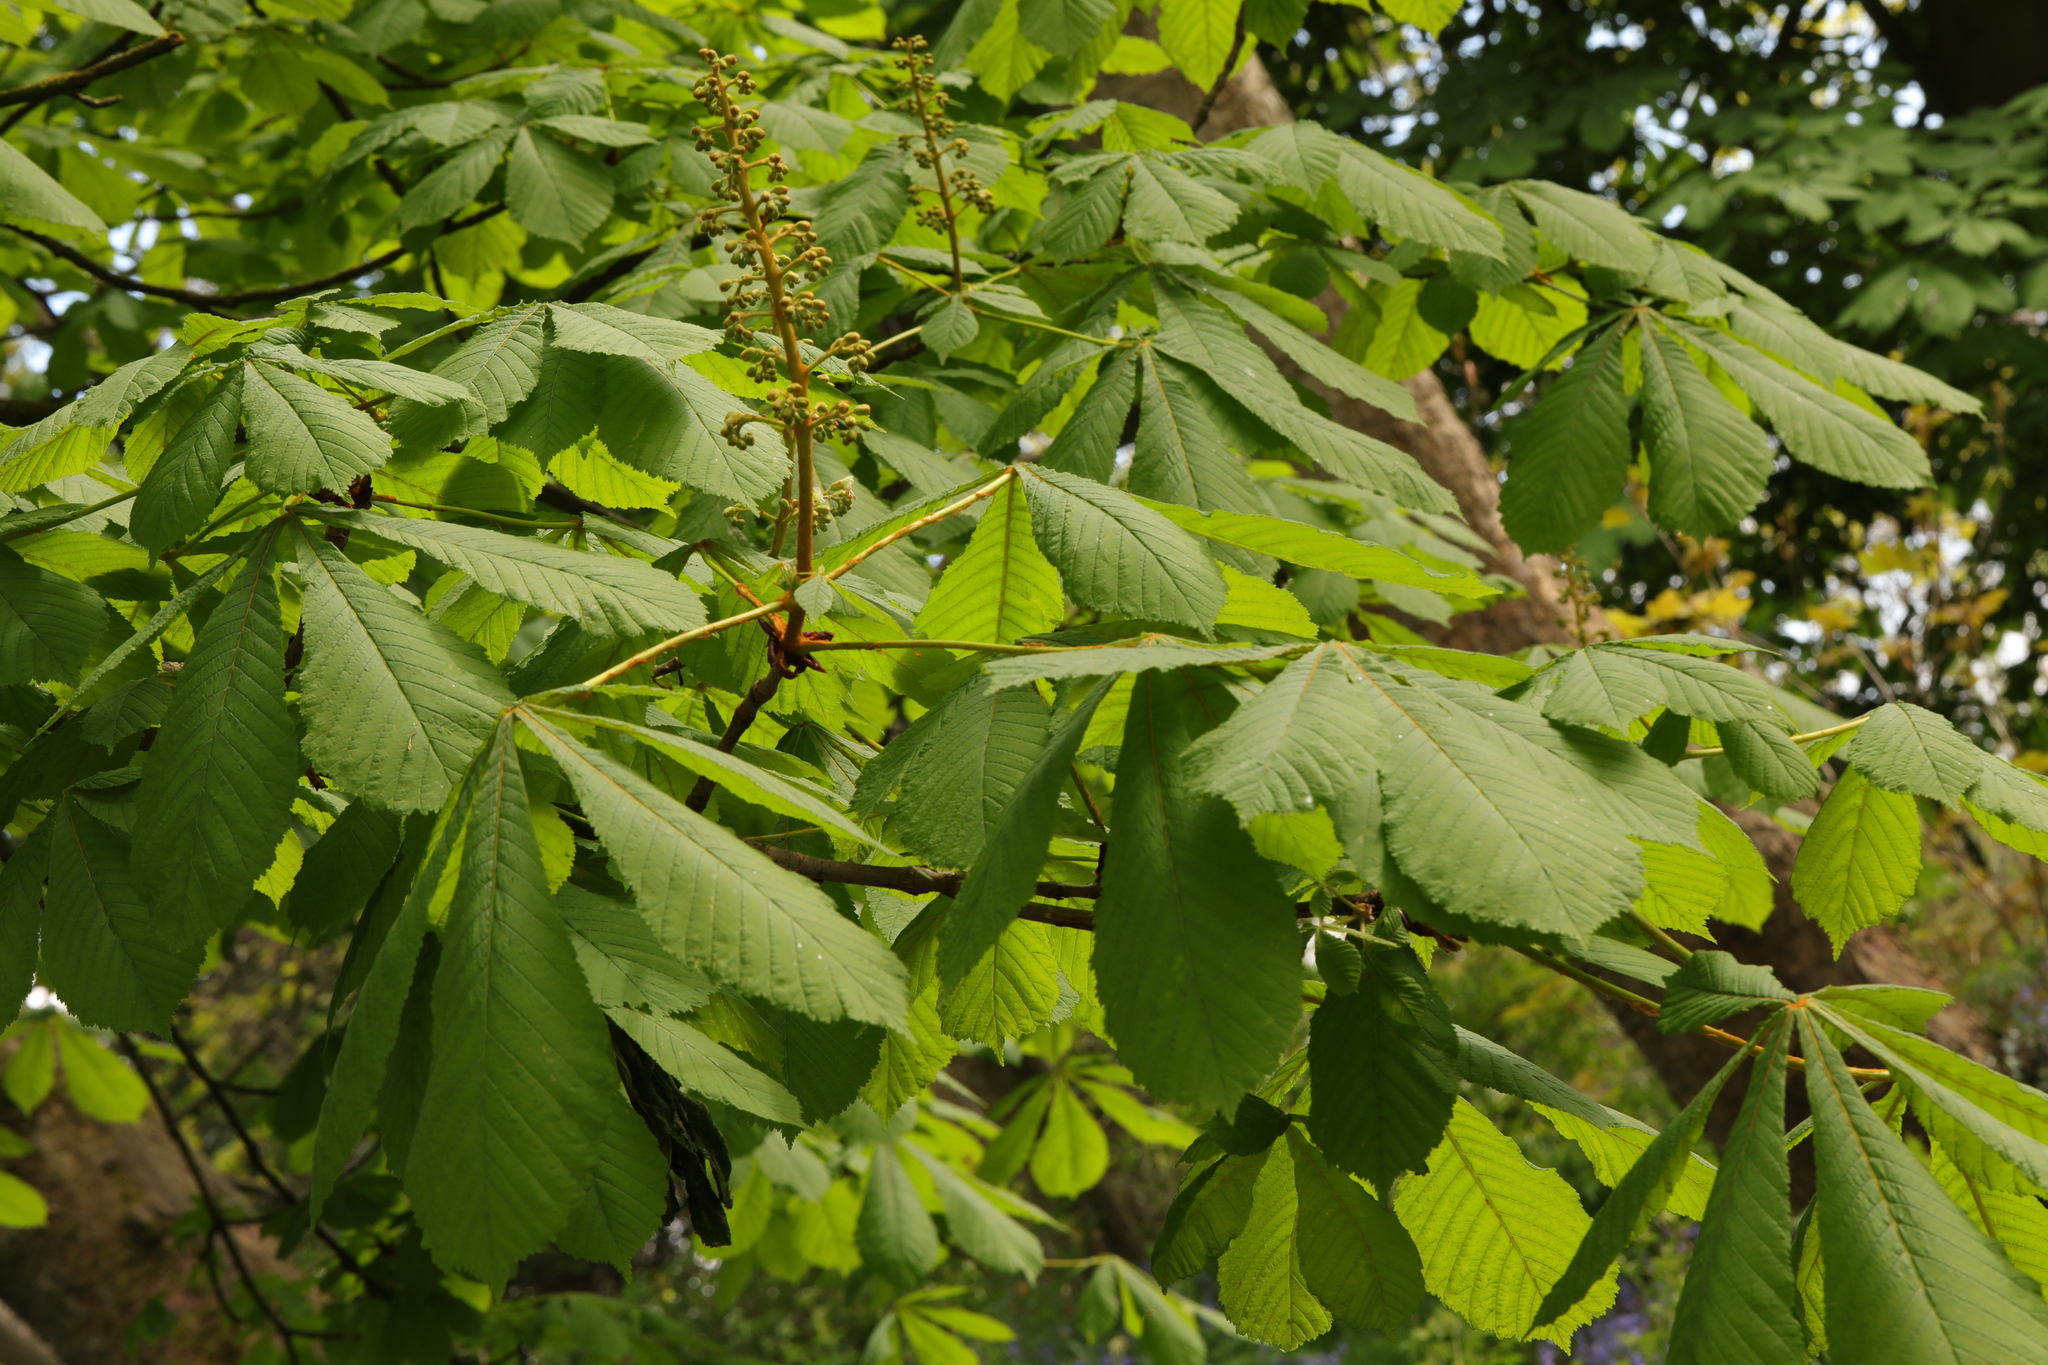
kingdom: Plantae
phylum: Tracheophyta
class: Magnoliopsida
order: Sapindales
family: Sapindaceae
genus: Aesculus
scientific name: Aesculus hippocastanum
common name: Horse-chestnut
